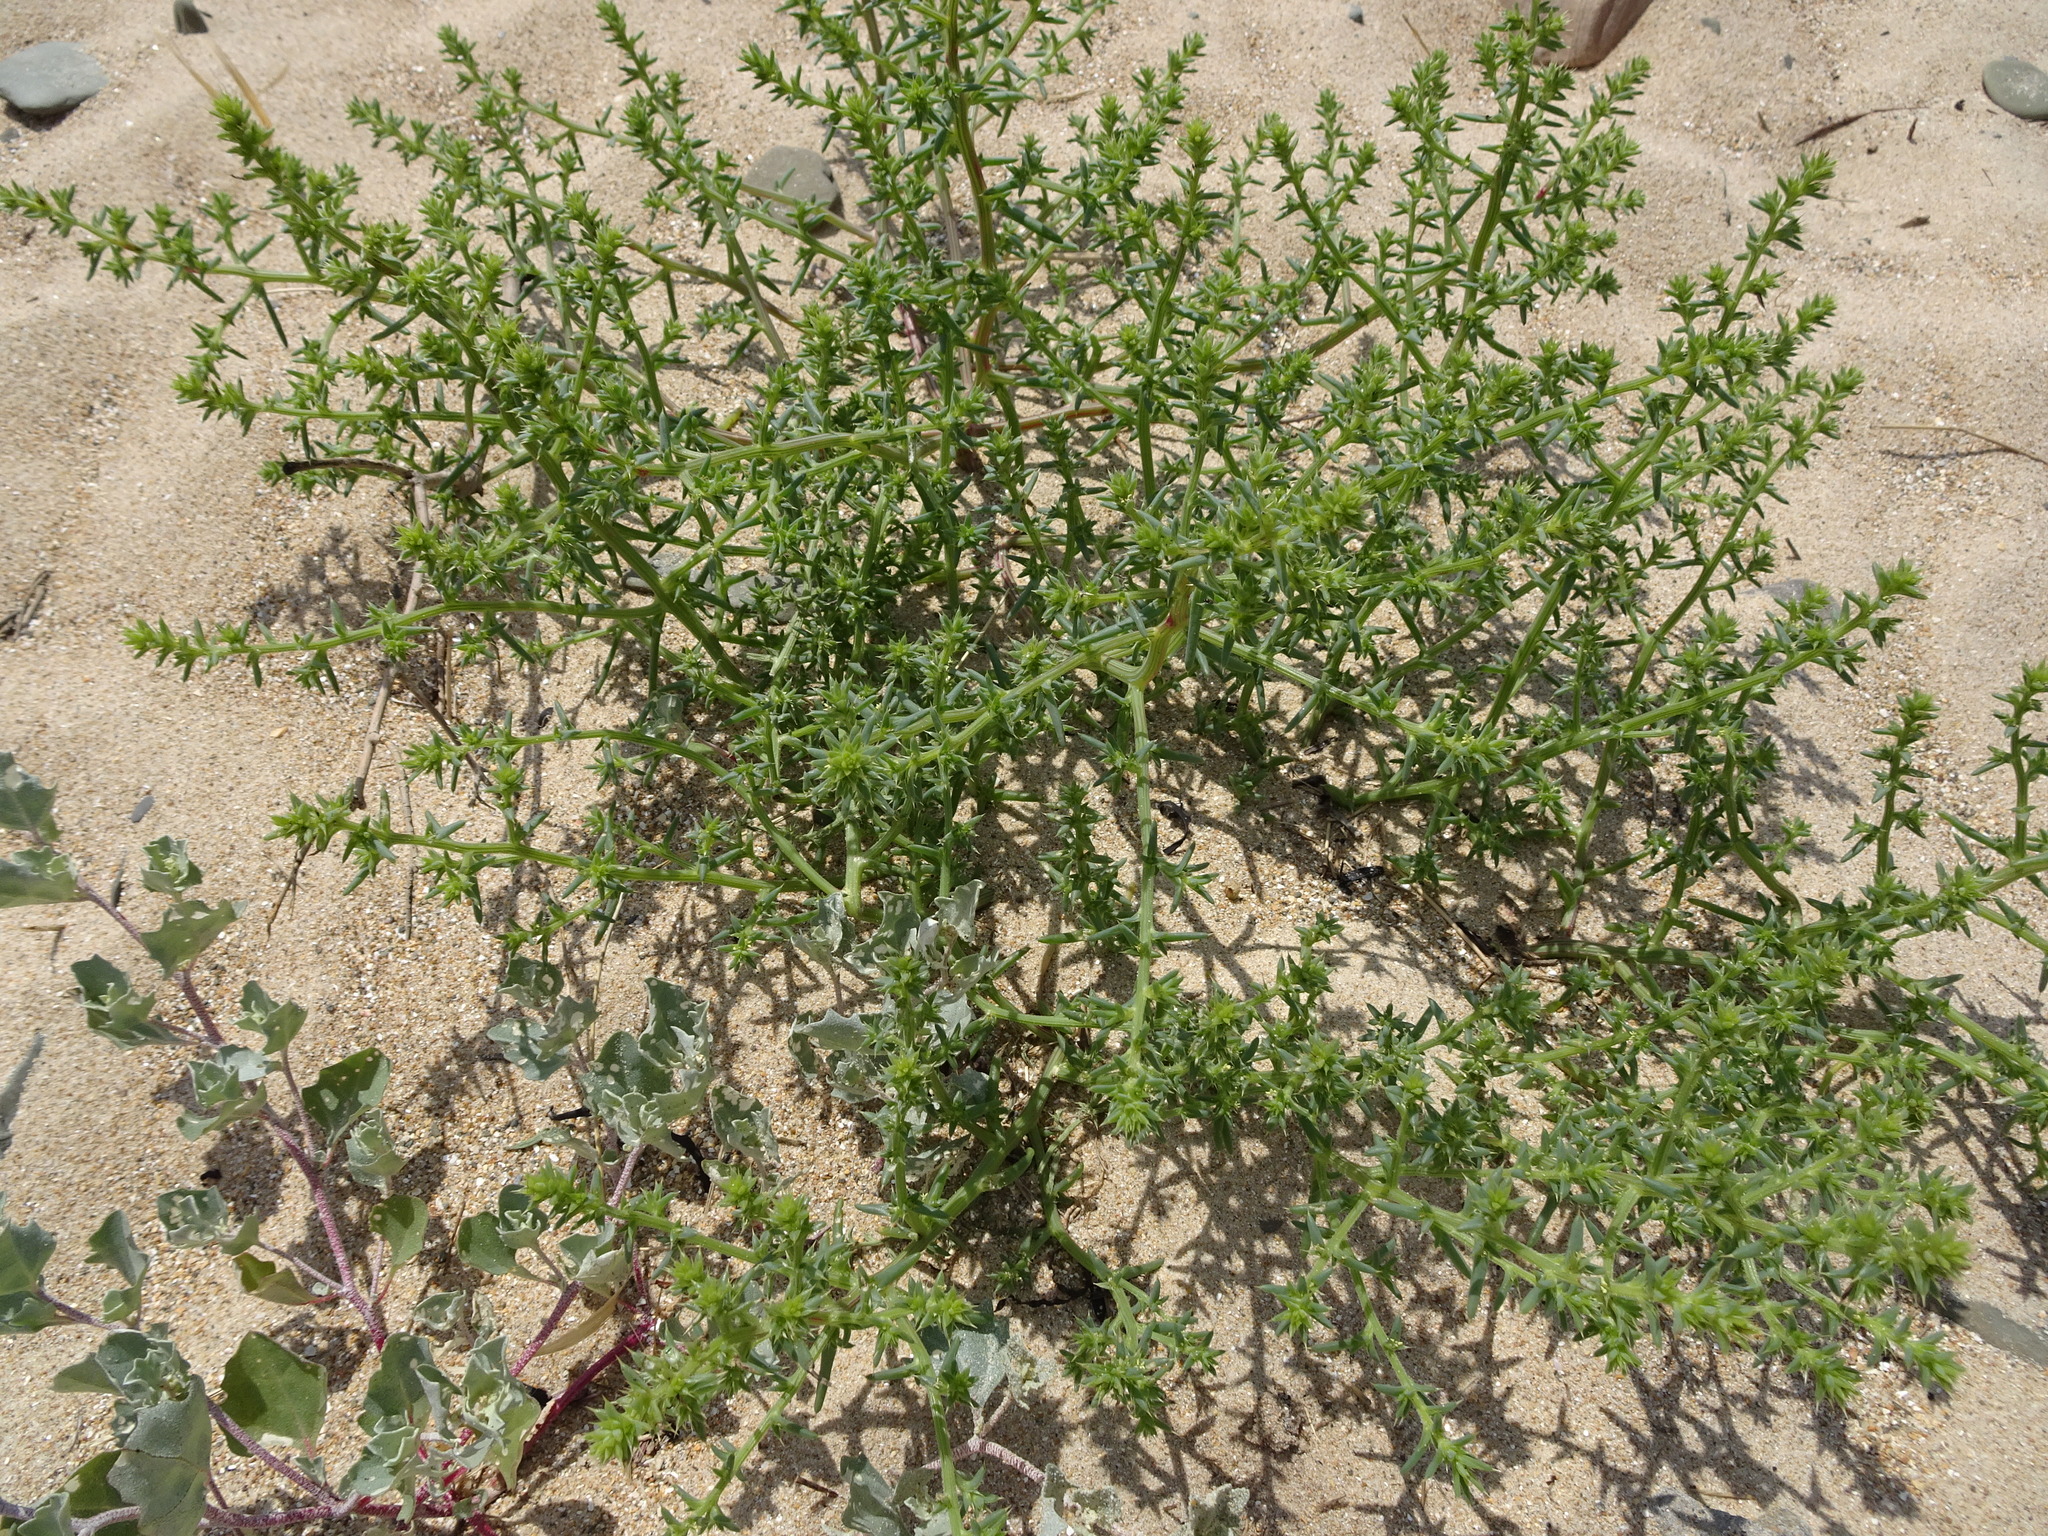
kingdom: Plantae
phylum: Tracheophyta
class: Magnoliopsida
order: Caryophyllales
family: Amaranthaceae
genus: Salsola
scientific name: Salsola kali
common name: Saltwort
